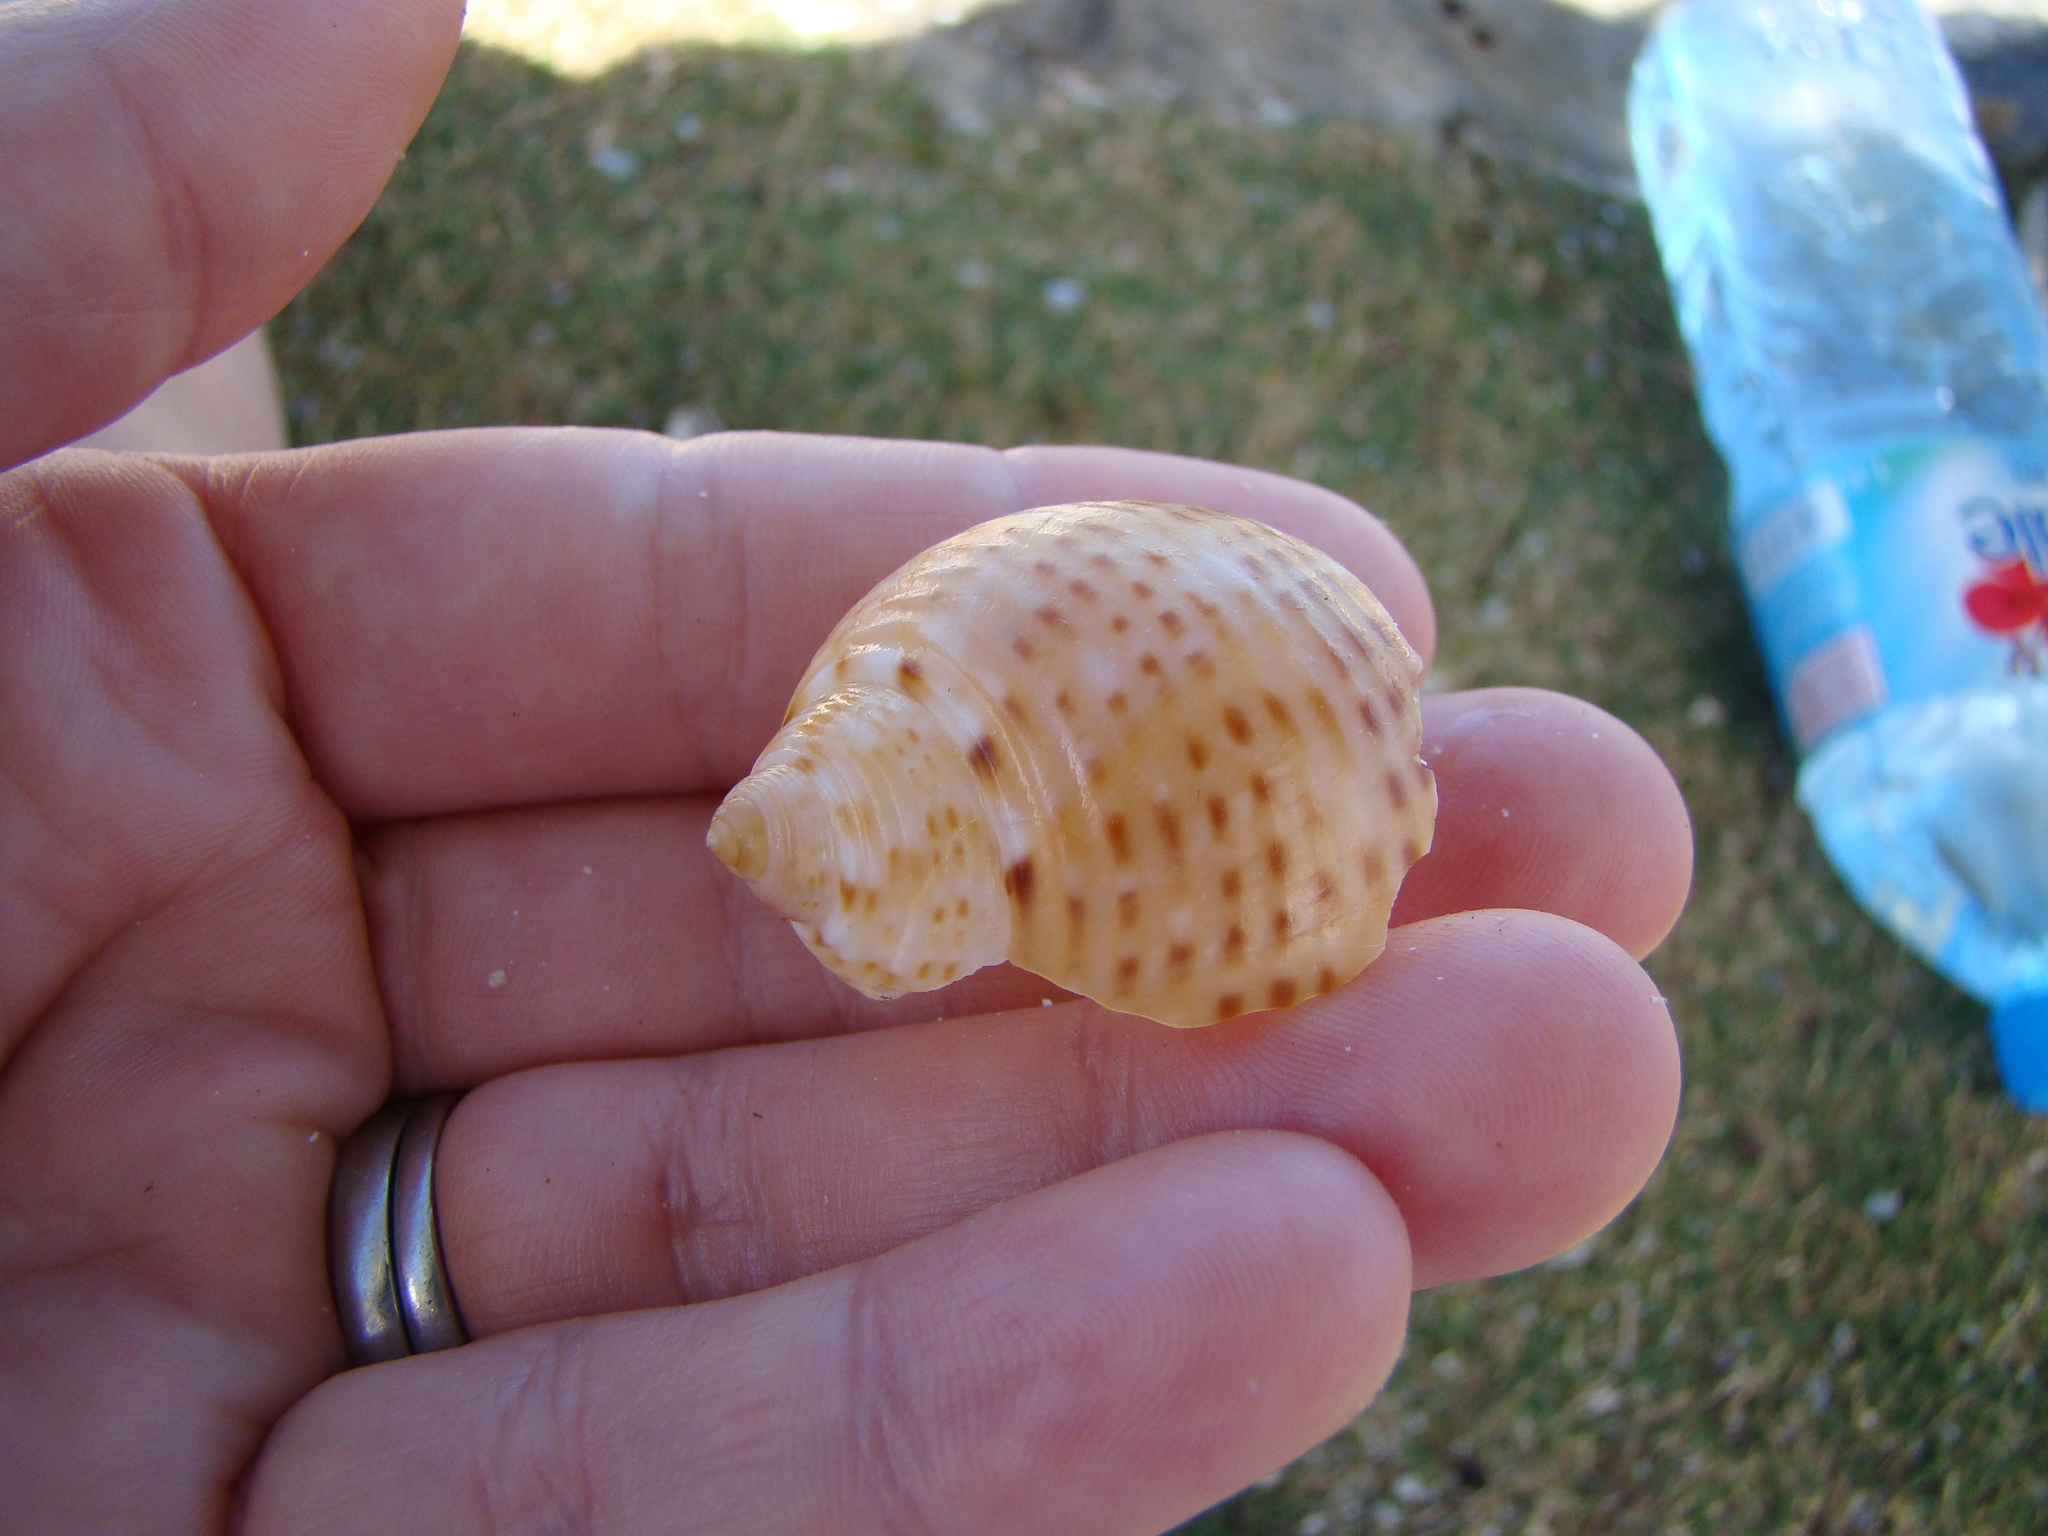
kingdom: Animalia
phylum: Mollusca
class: Gastropoda
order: Littorinimorpha
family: Tonnidae
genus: Tonna
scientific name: Tonna perdix
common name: Pacific partridge tun
